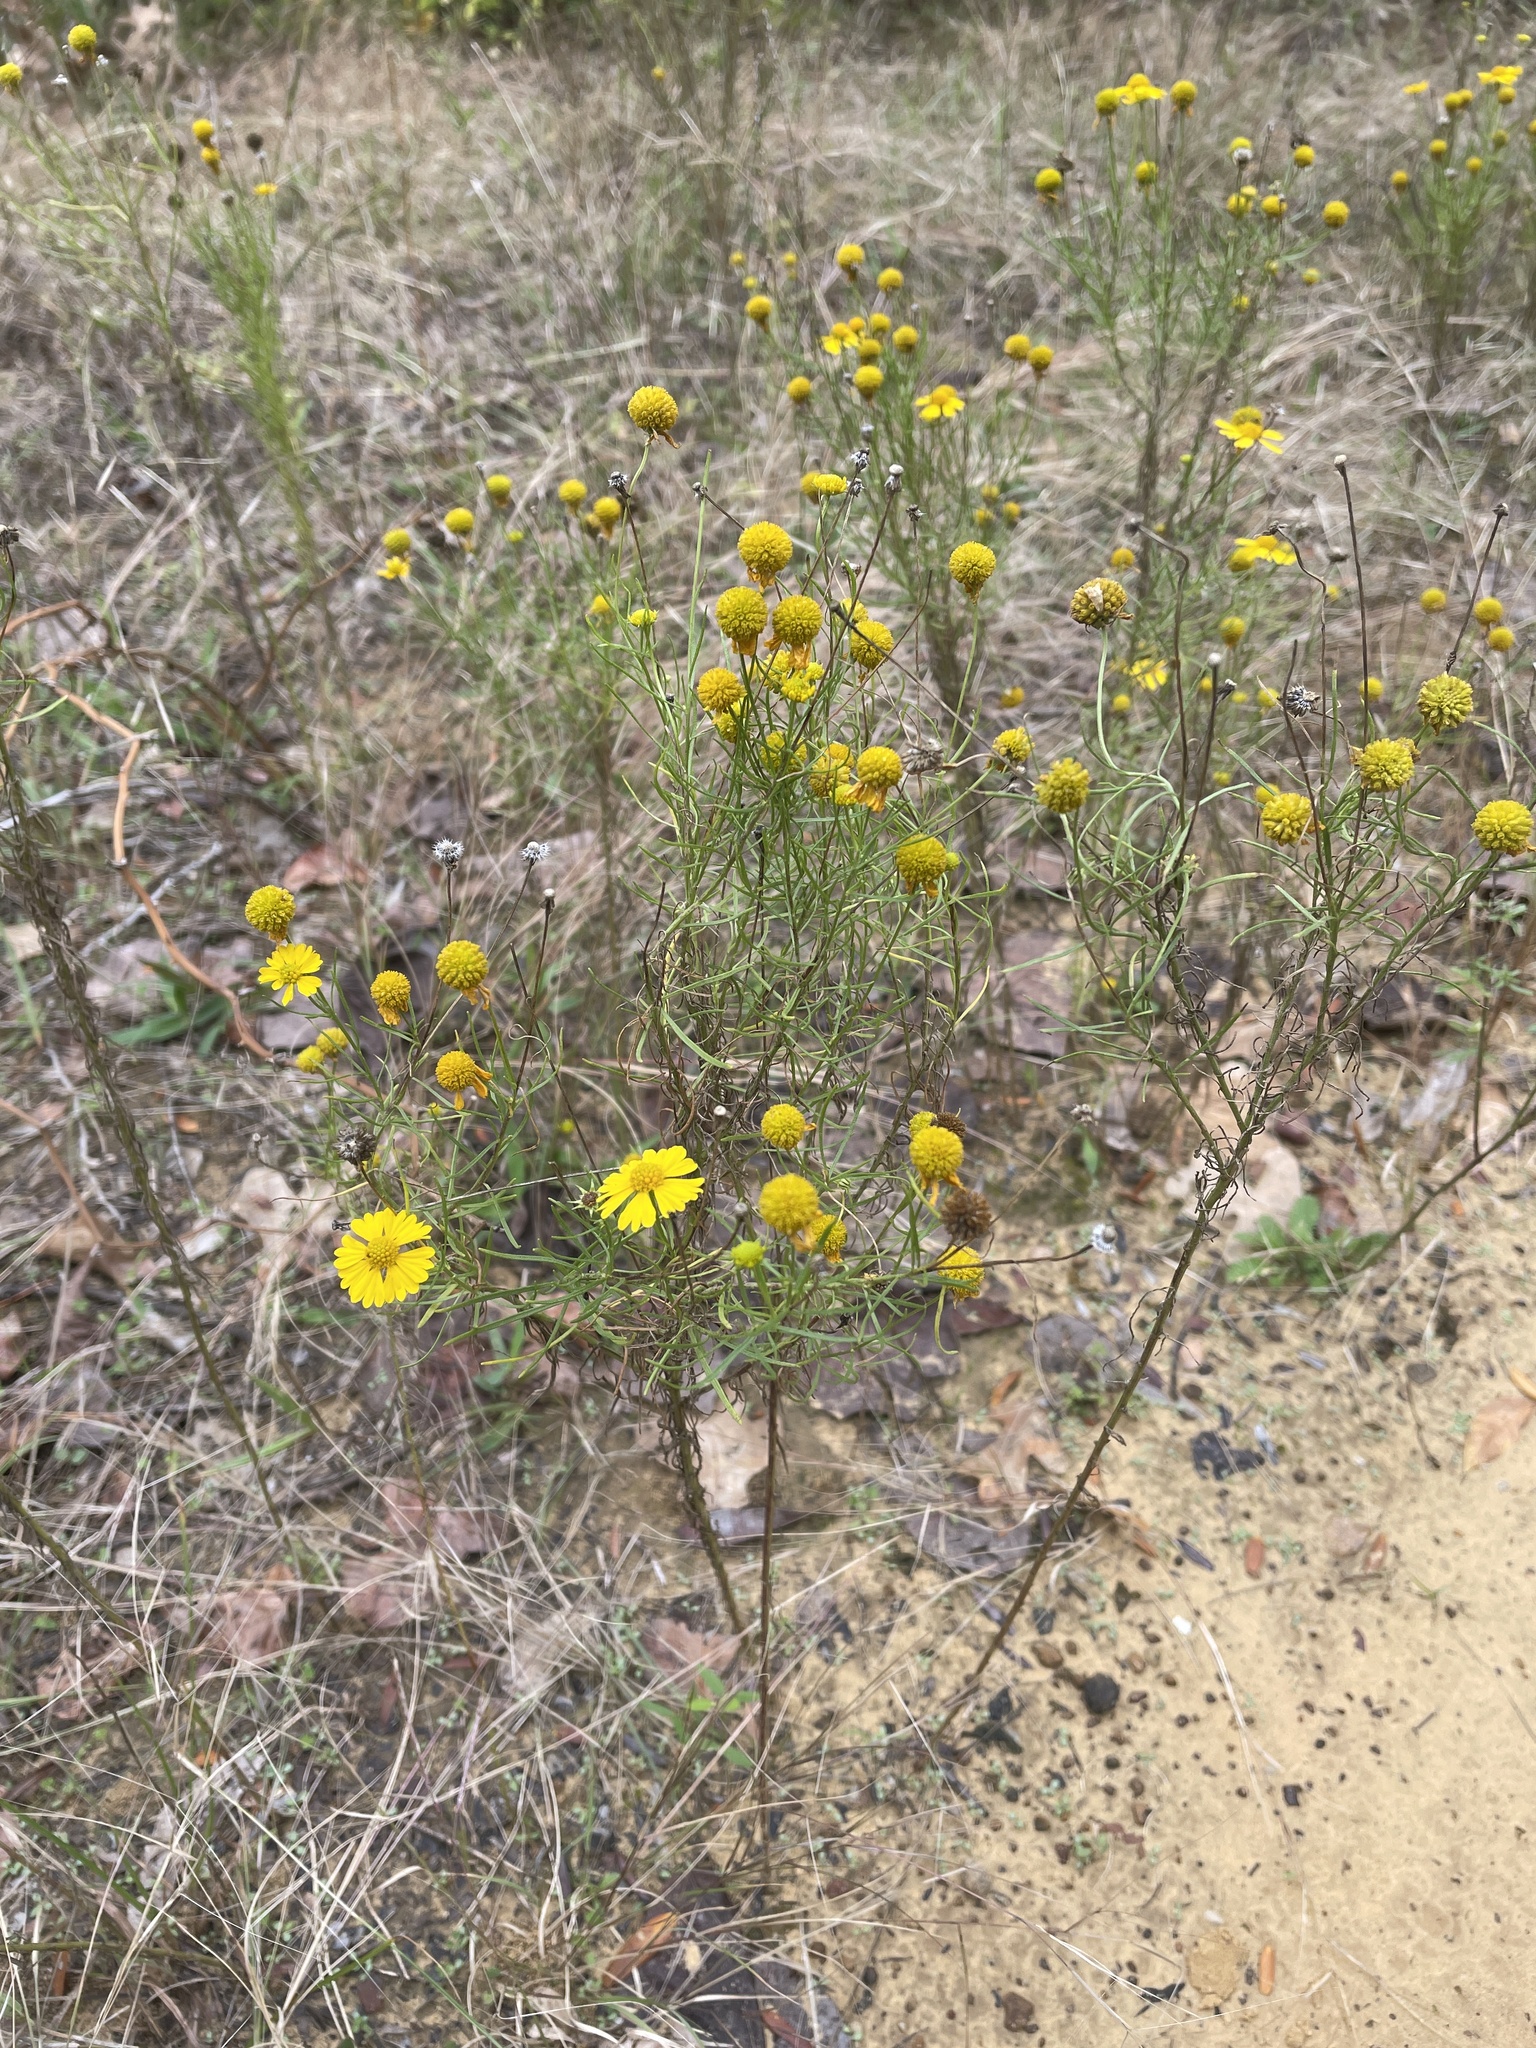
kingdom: Plantae
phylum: Tracheophyta
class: Magnoliopsida
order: Asterales
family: Asteraceae
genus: Helenium
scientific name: Helenium amarum
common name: Bitter sneezeweed
